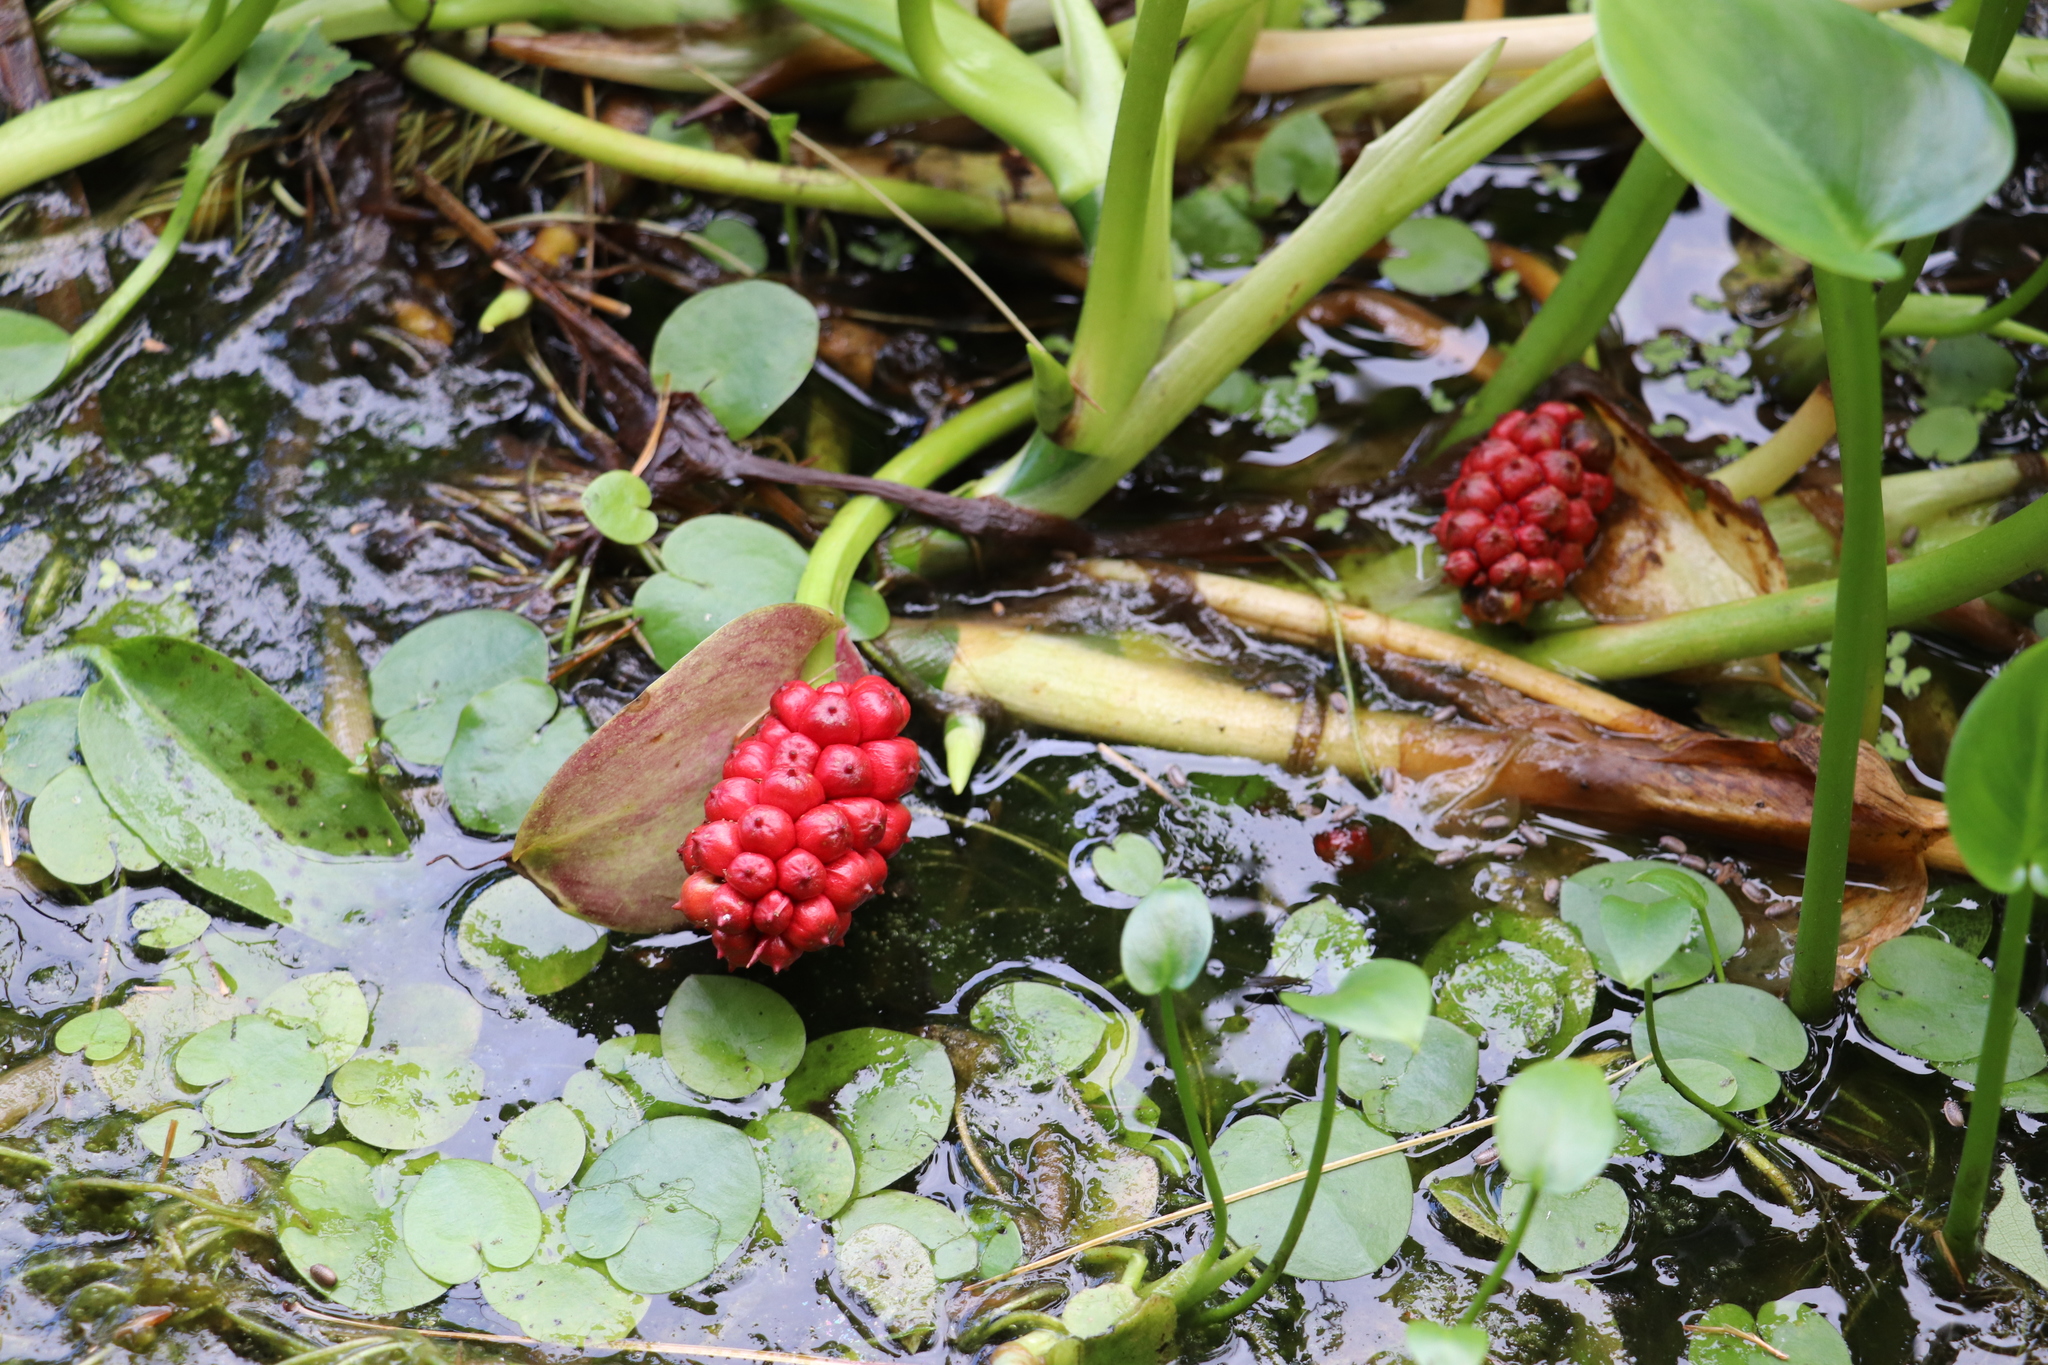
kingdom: Plantae
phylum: Tracheophyta
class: Liliopsida
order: Alismatales
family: Araceae
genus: Calla
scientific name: Calla palustris
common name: Bog arum
